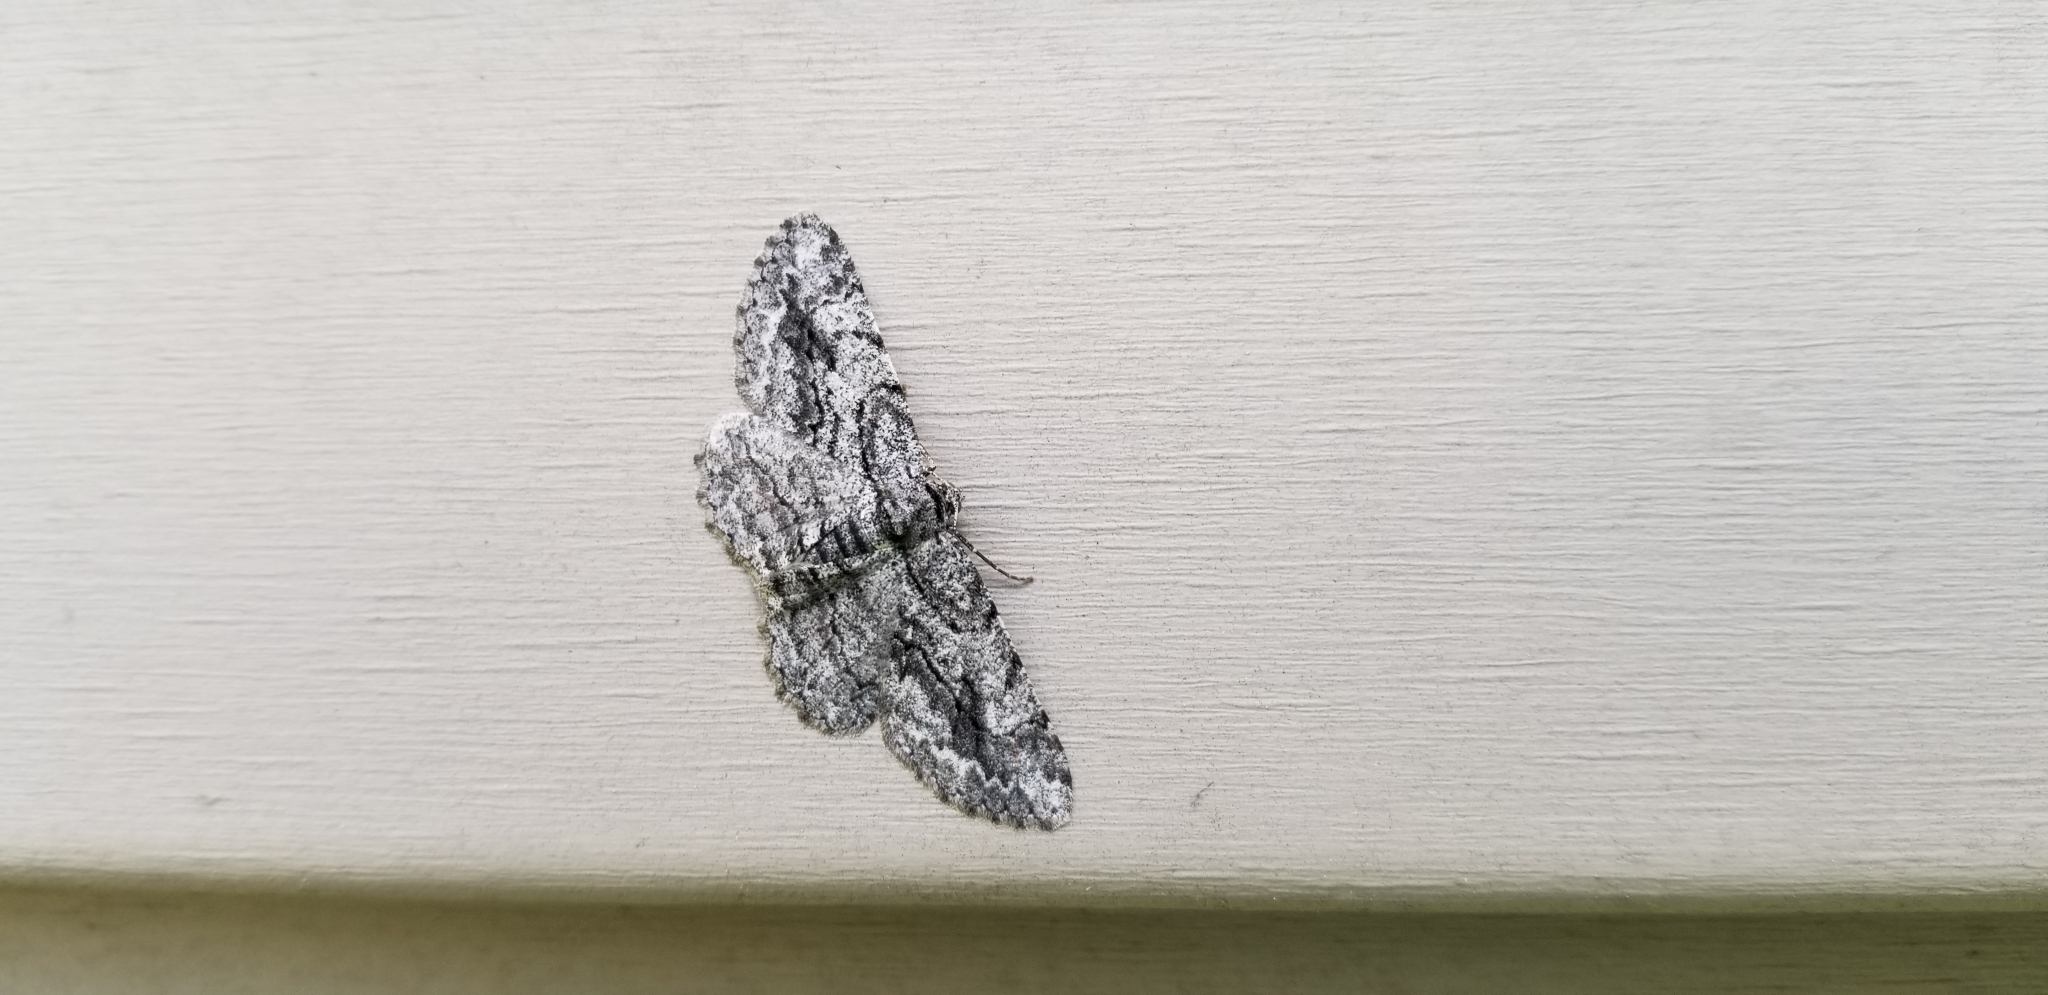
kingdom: Animalia
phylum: Arthropoda
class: Insecta
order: Lepidoptera
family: Geometridae
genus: Anavitrinella
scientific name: Anavitrinella pampinaria
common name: Common gray
